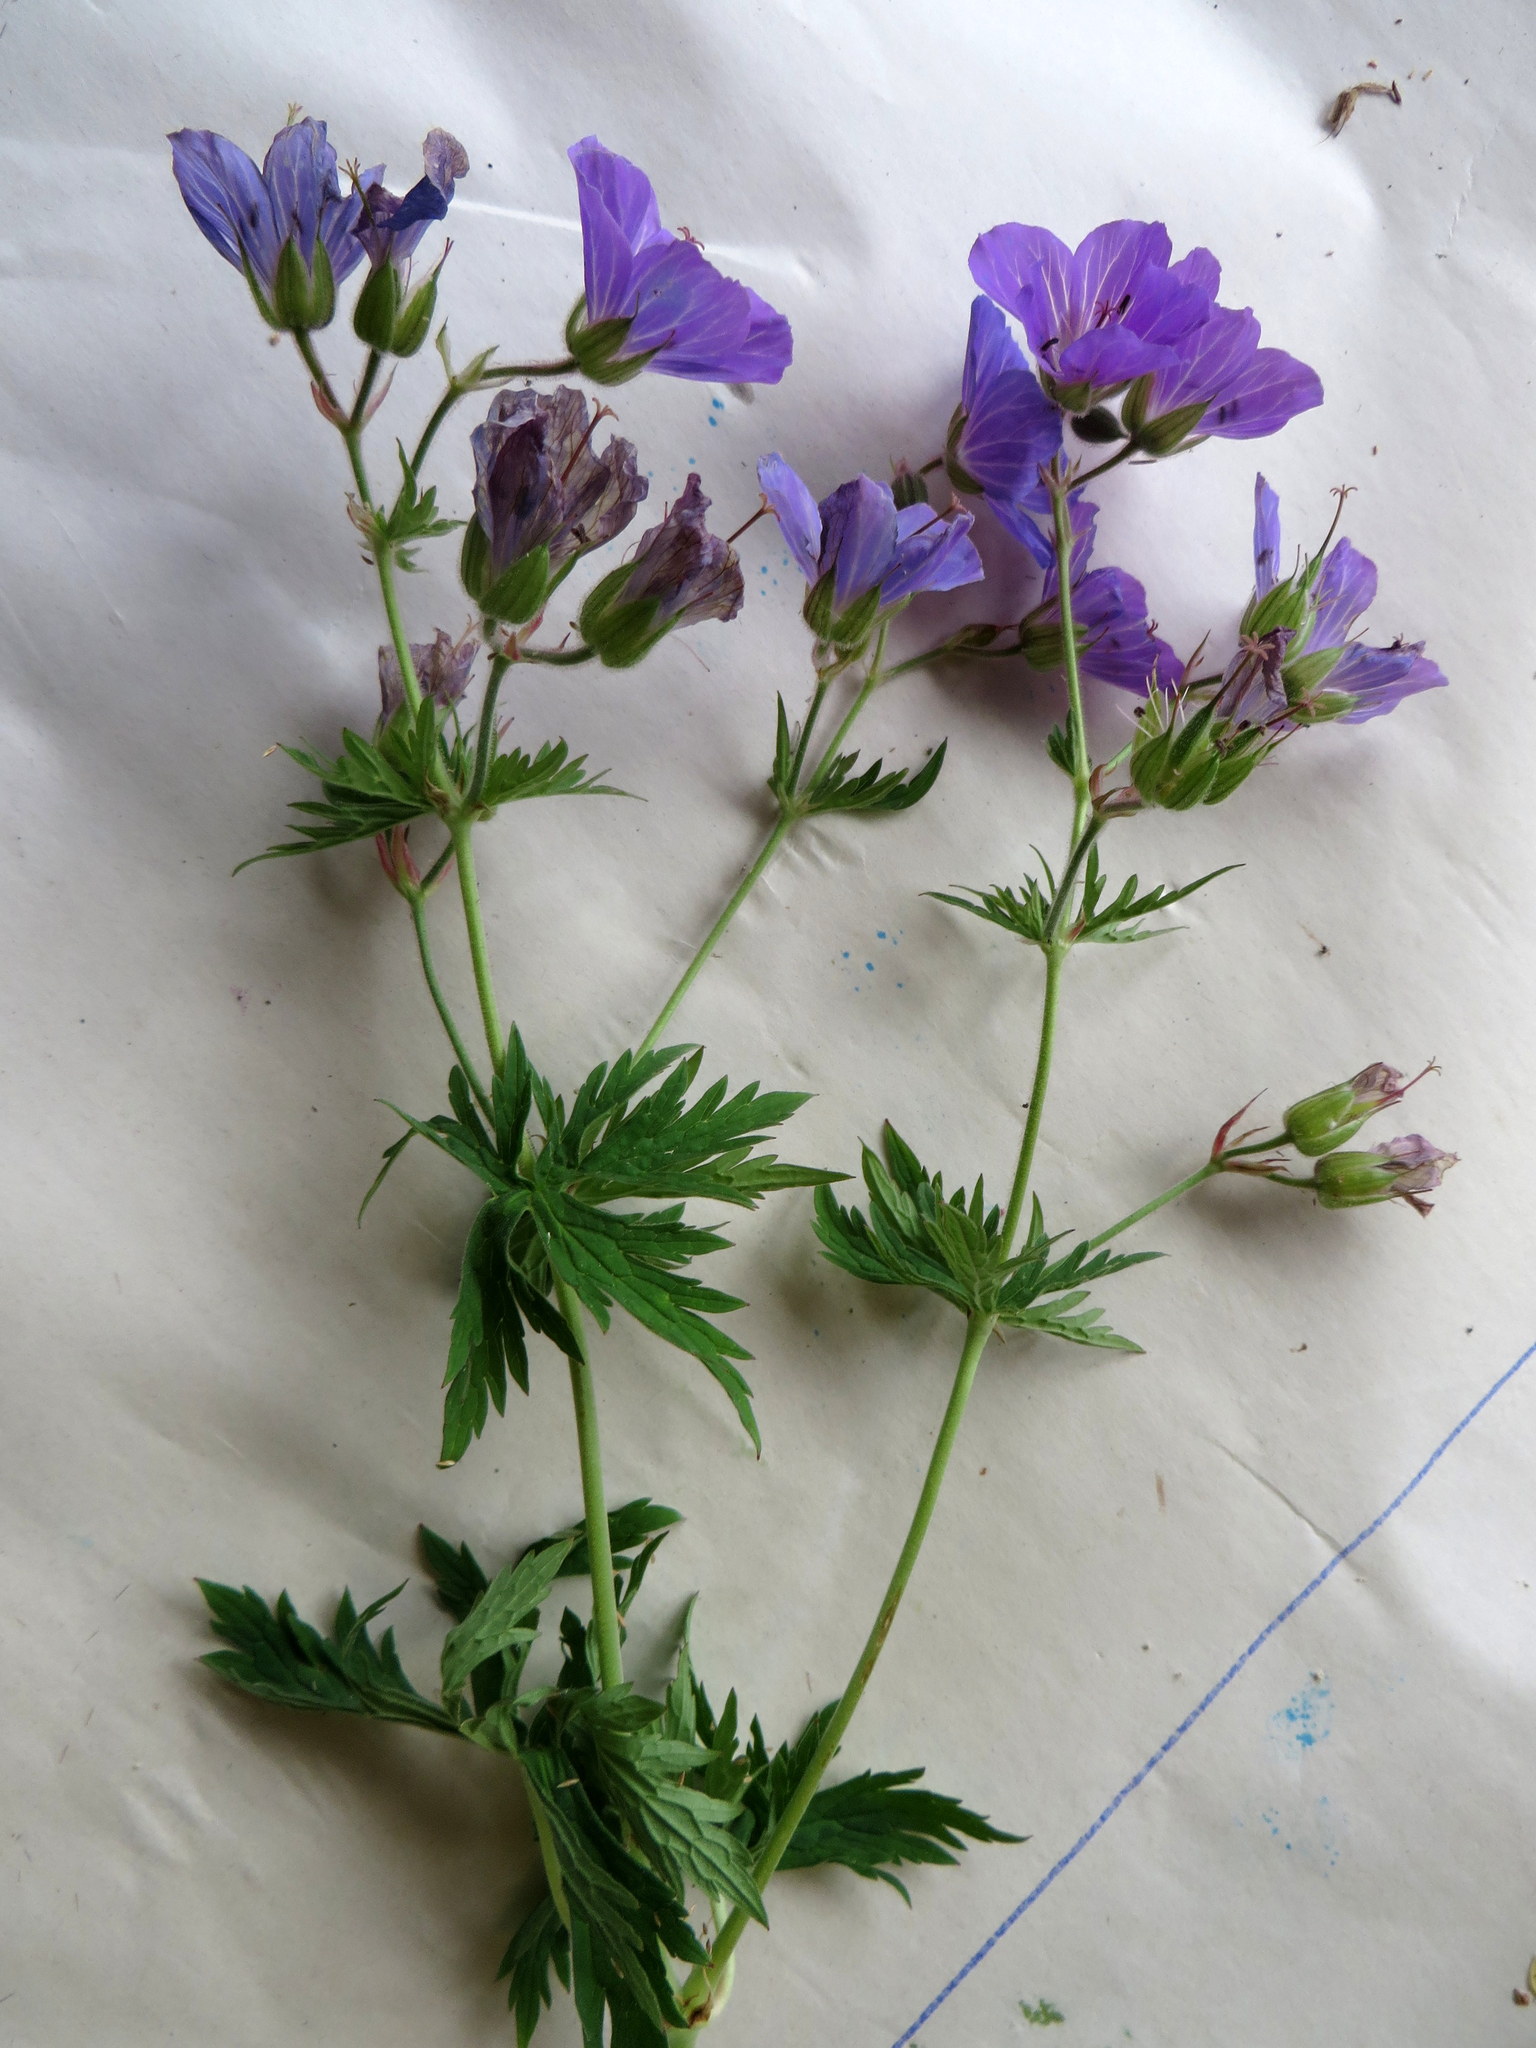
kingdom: Plantae
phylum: Tracheophyta
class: Magnoliopsida
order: Geraniales
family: Geraniaceae
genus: Geranium
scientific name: Geranium maculatum
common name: Spotted geranium
